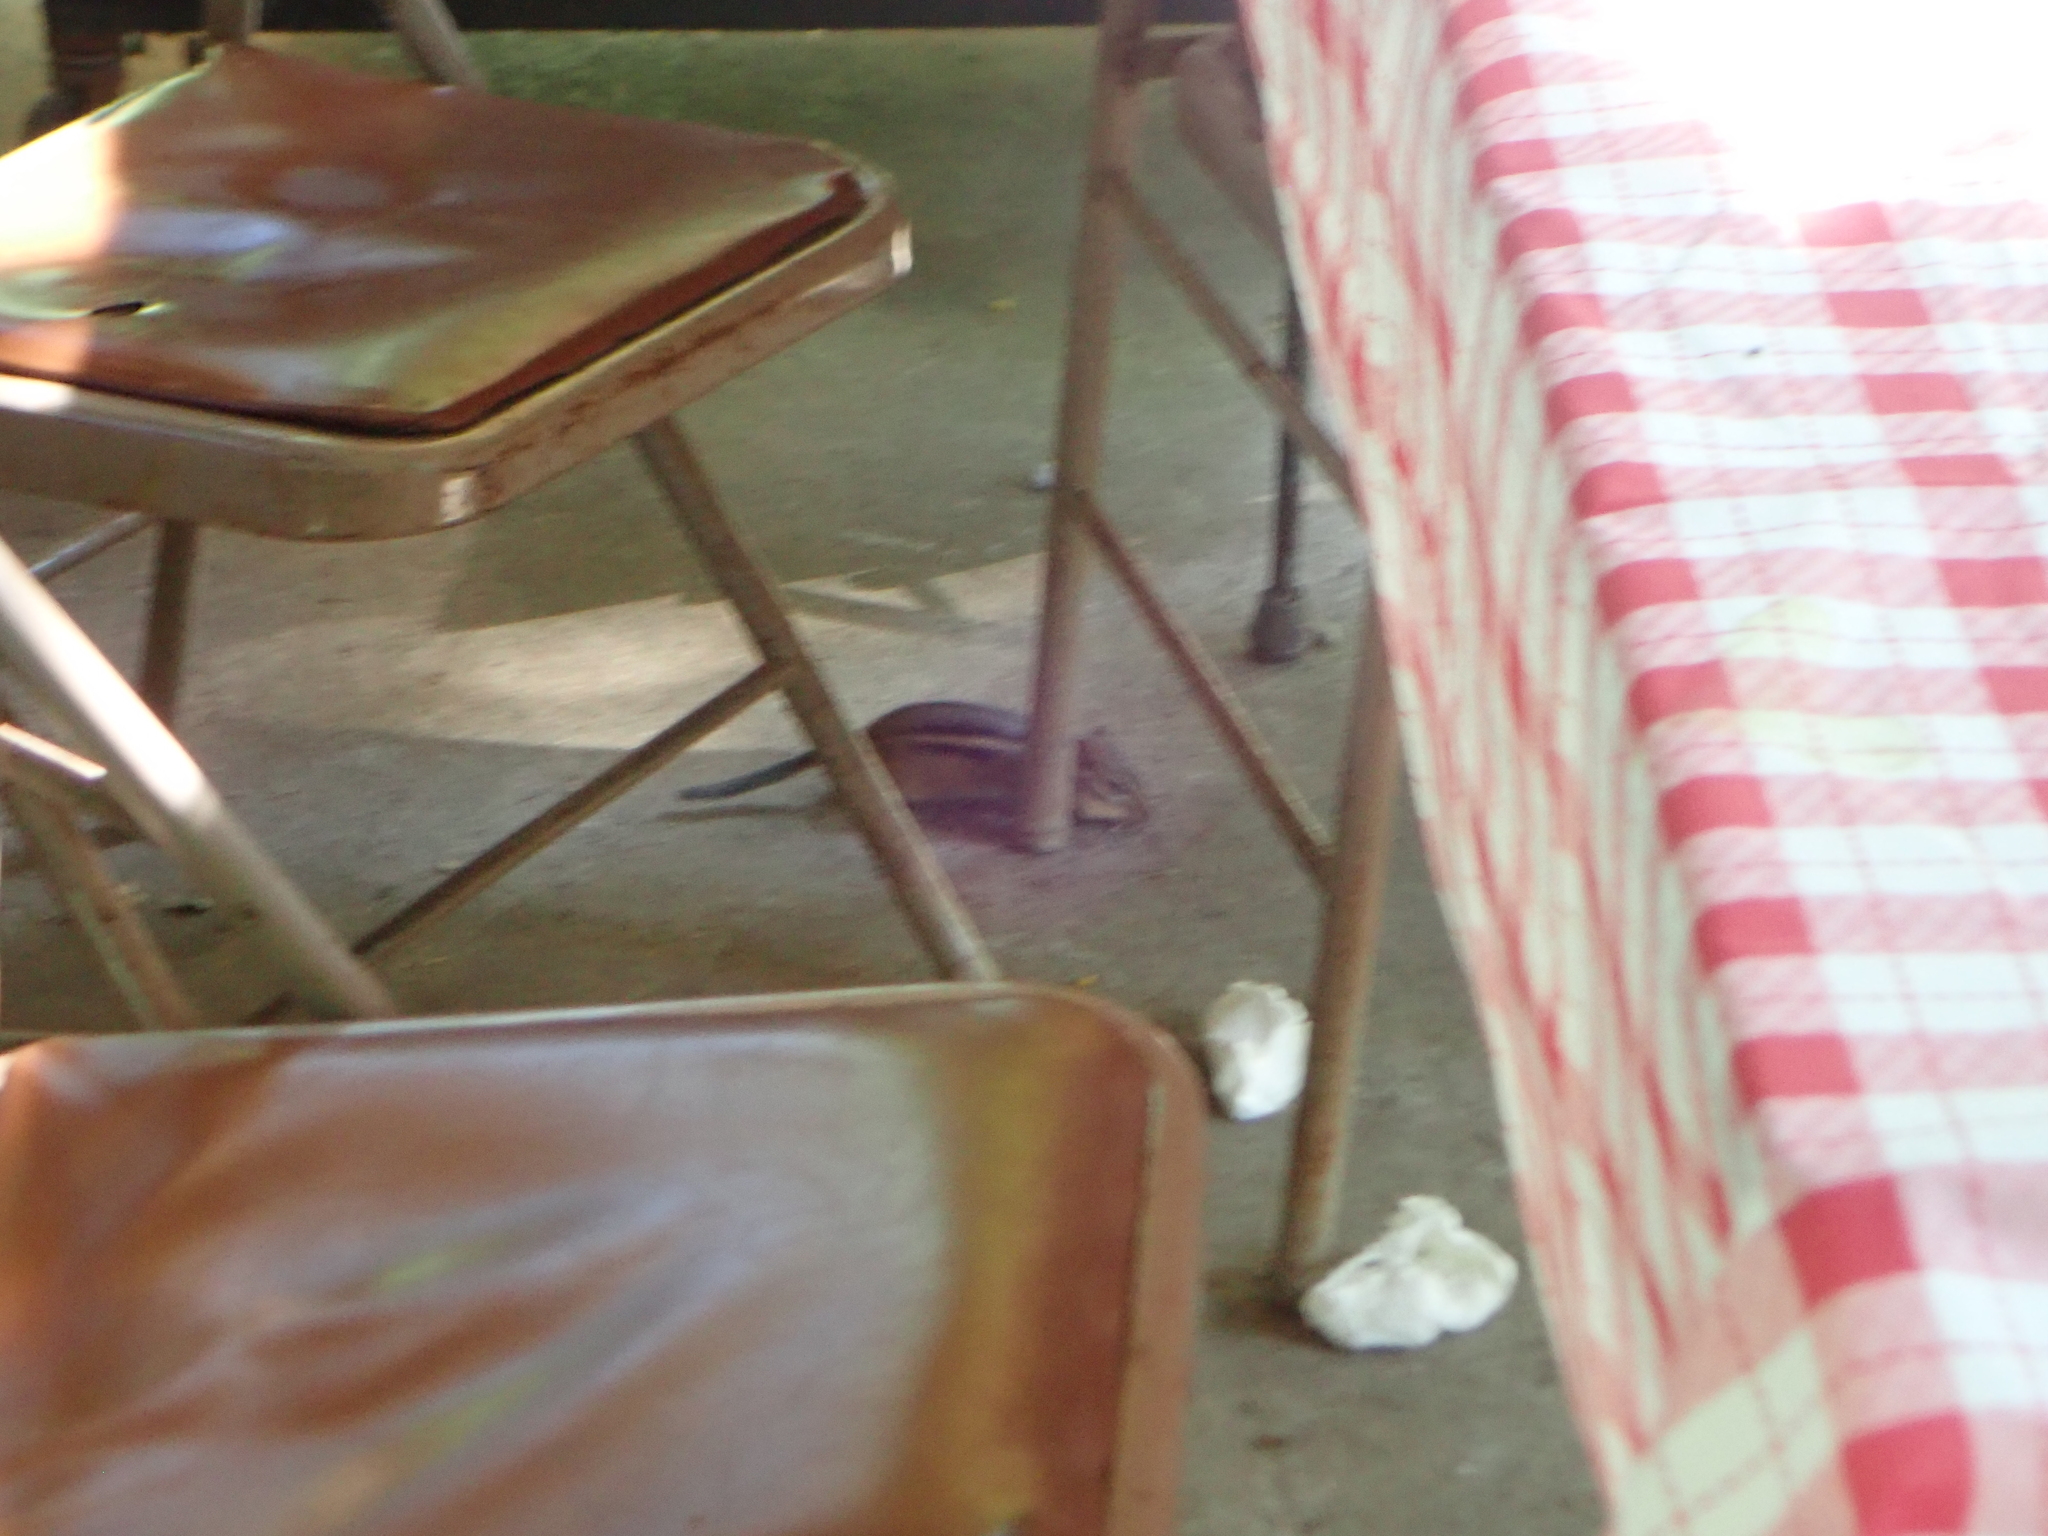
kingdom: Animalia
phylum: Chordata
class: Mammalia
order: Rodentia
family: Sciuridae
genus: Tamias
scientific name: Tamias striatus
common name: Eastern chipmunk
